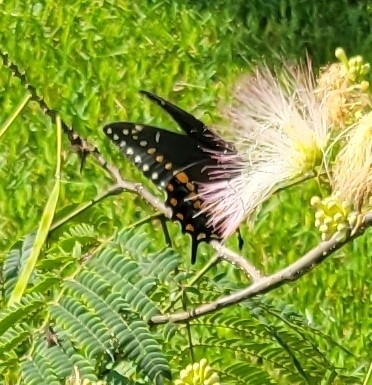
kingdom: Animalia
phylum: Arthropoda
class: Insecta
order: Lepidoptera
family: Papilionidae
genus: Papilio
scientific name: Papilio polyxenes
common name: Black swallowtail
